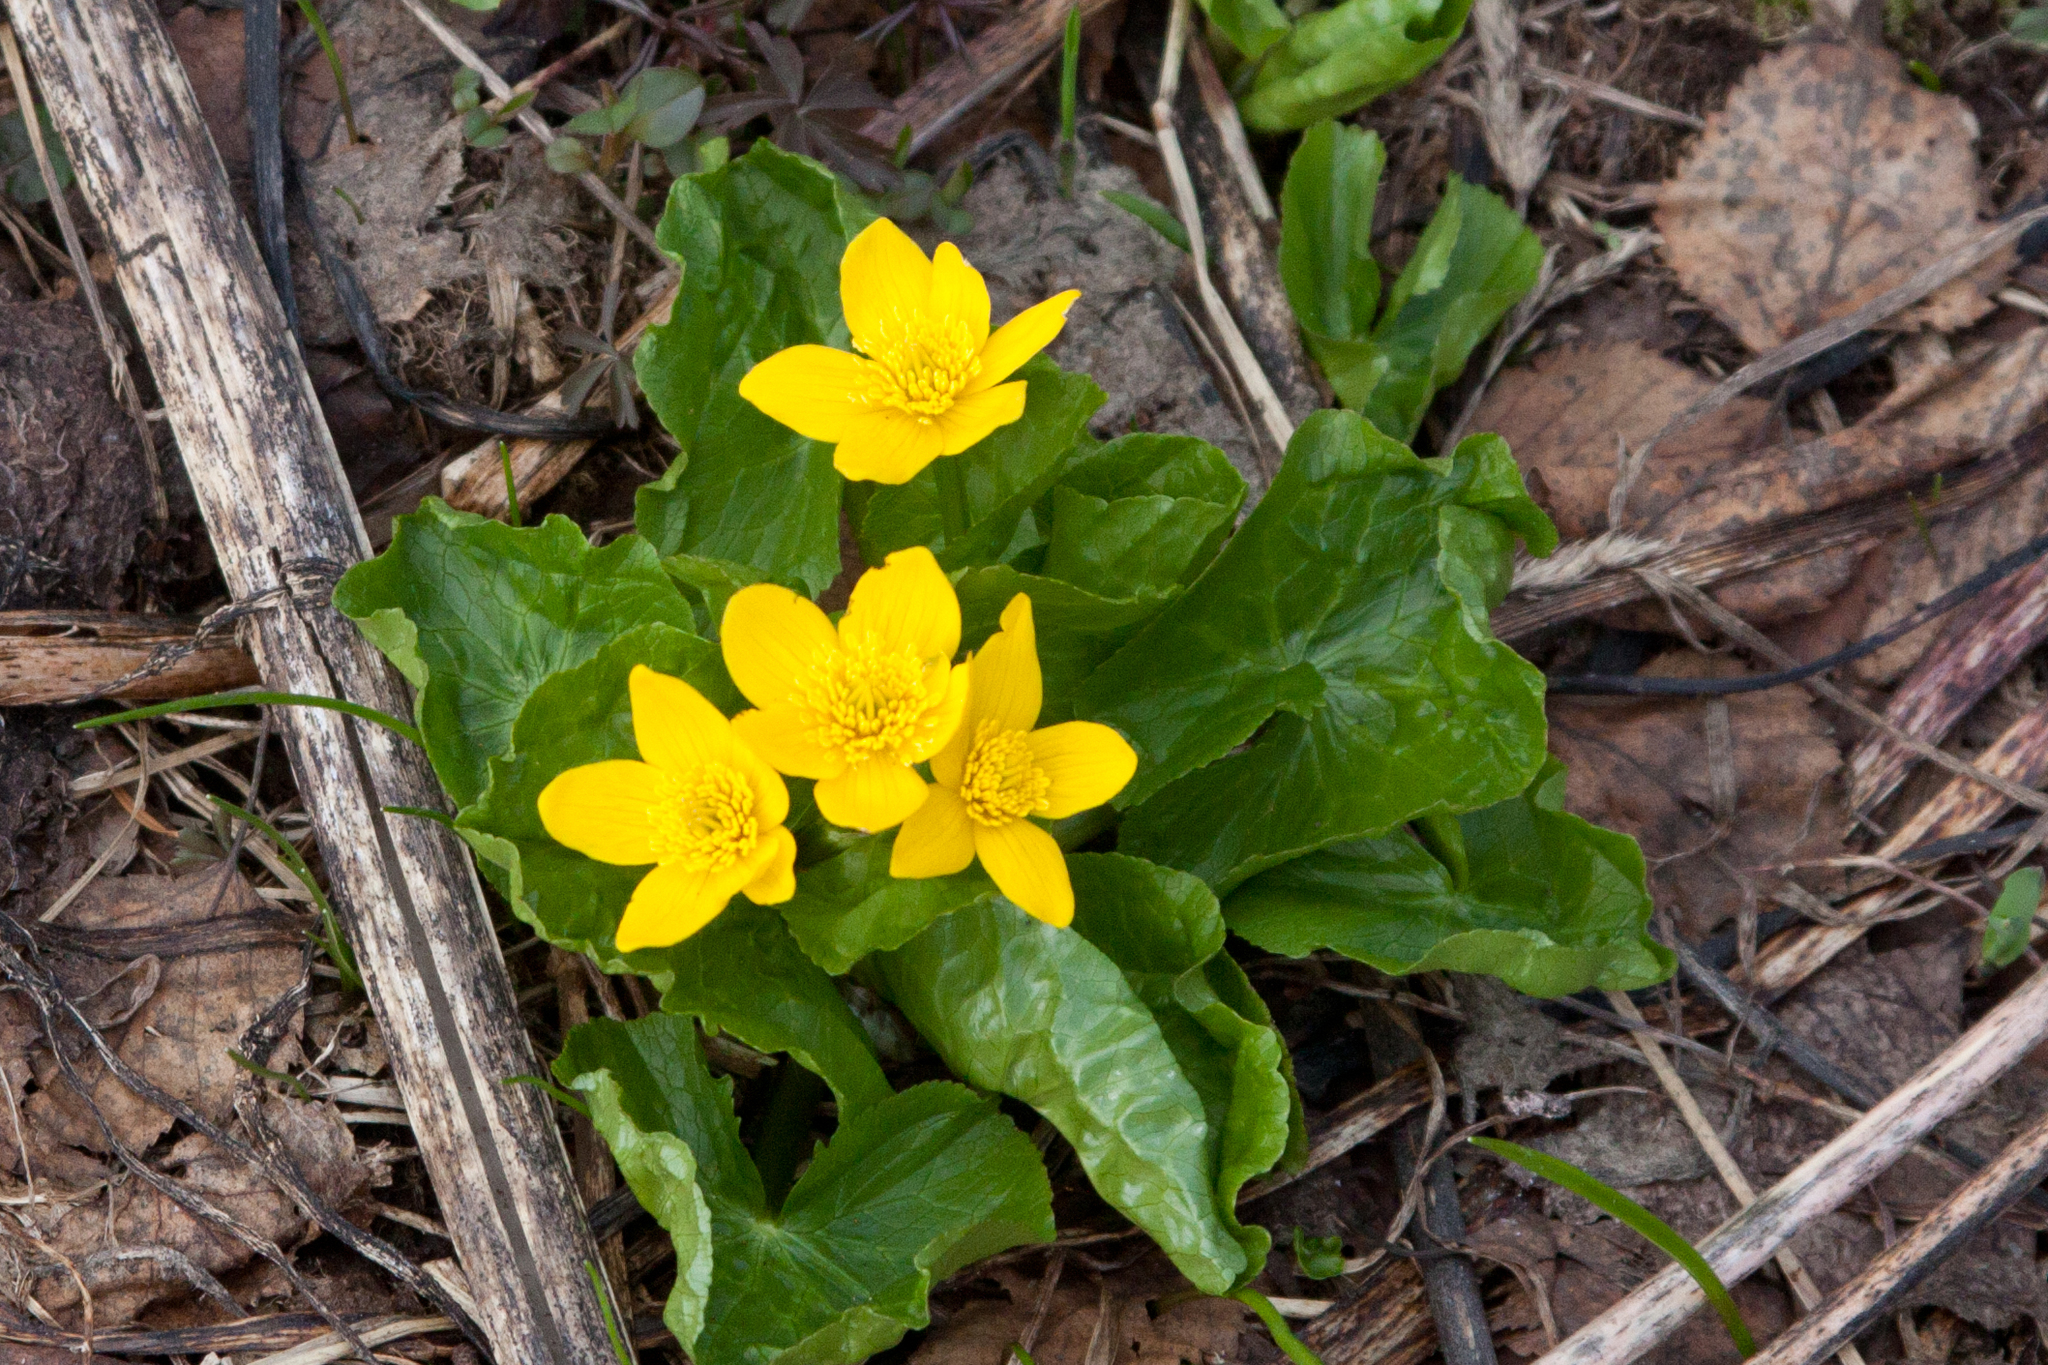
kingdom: Plantae
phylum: Tracheophyta
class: Magnoliopsida
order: Ranunculales
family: Ranunculaceae
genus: Caltha
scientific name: Caltha palustris
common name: Marsh marigold
